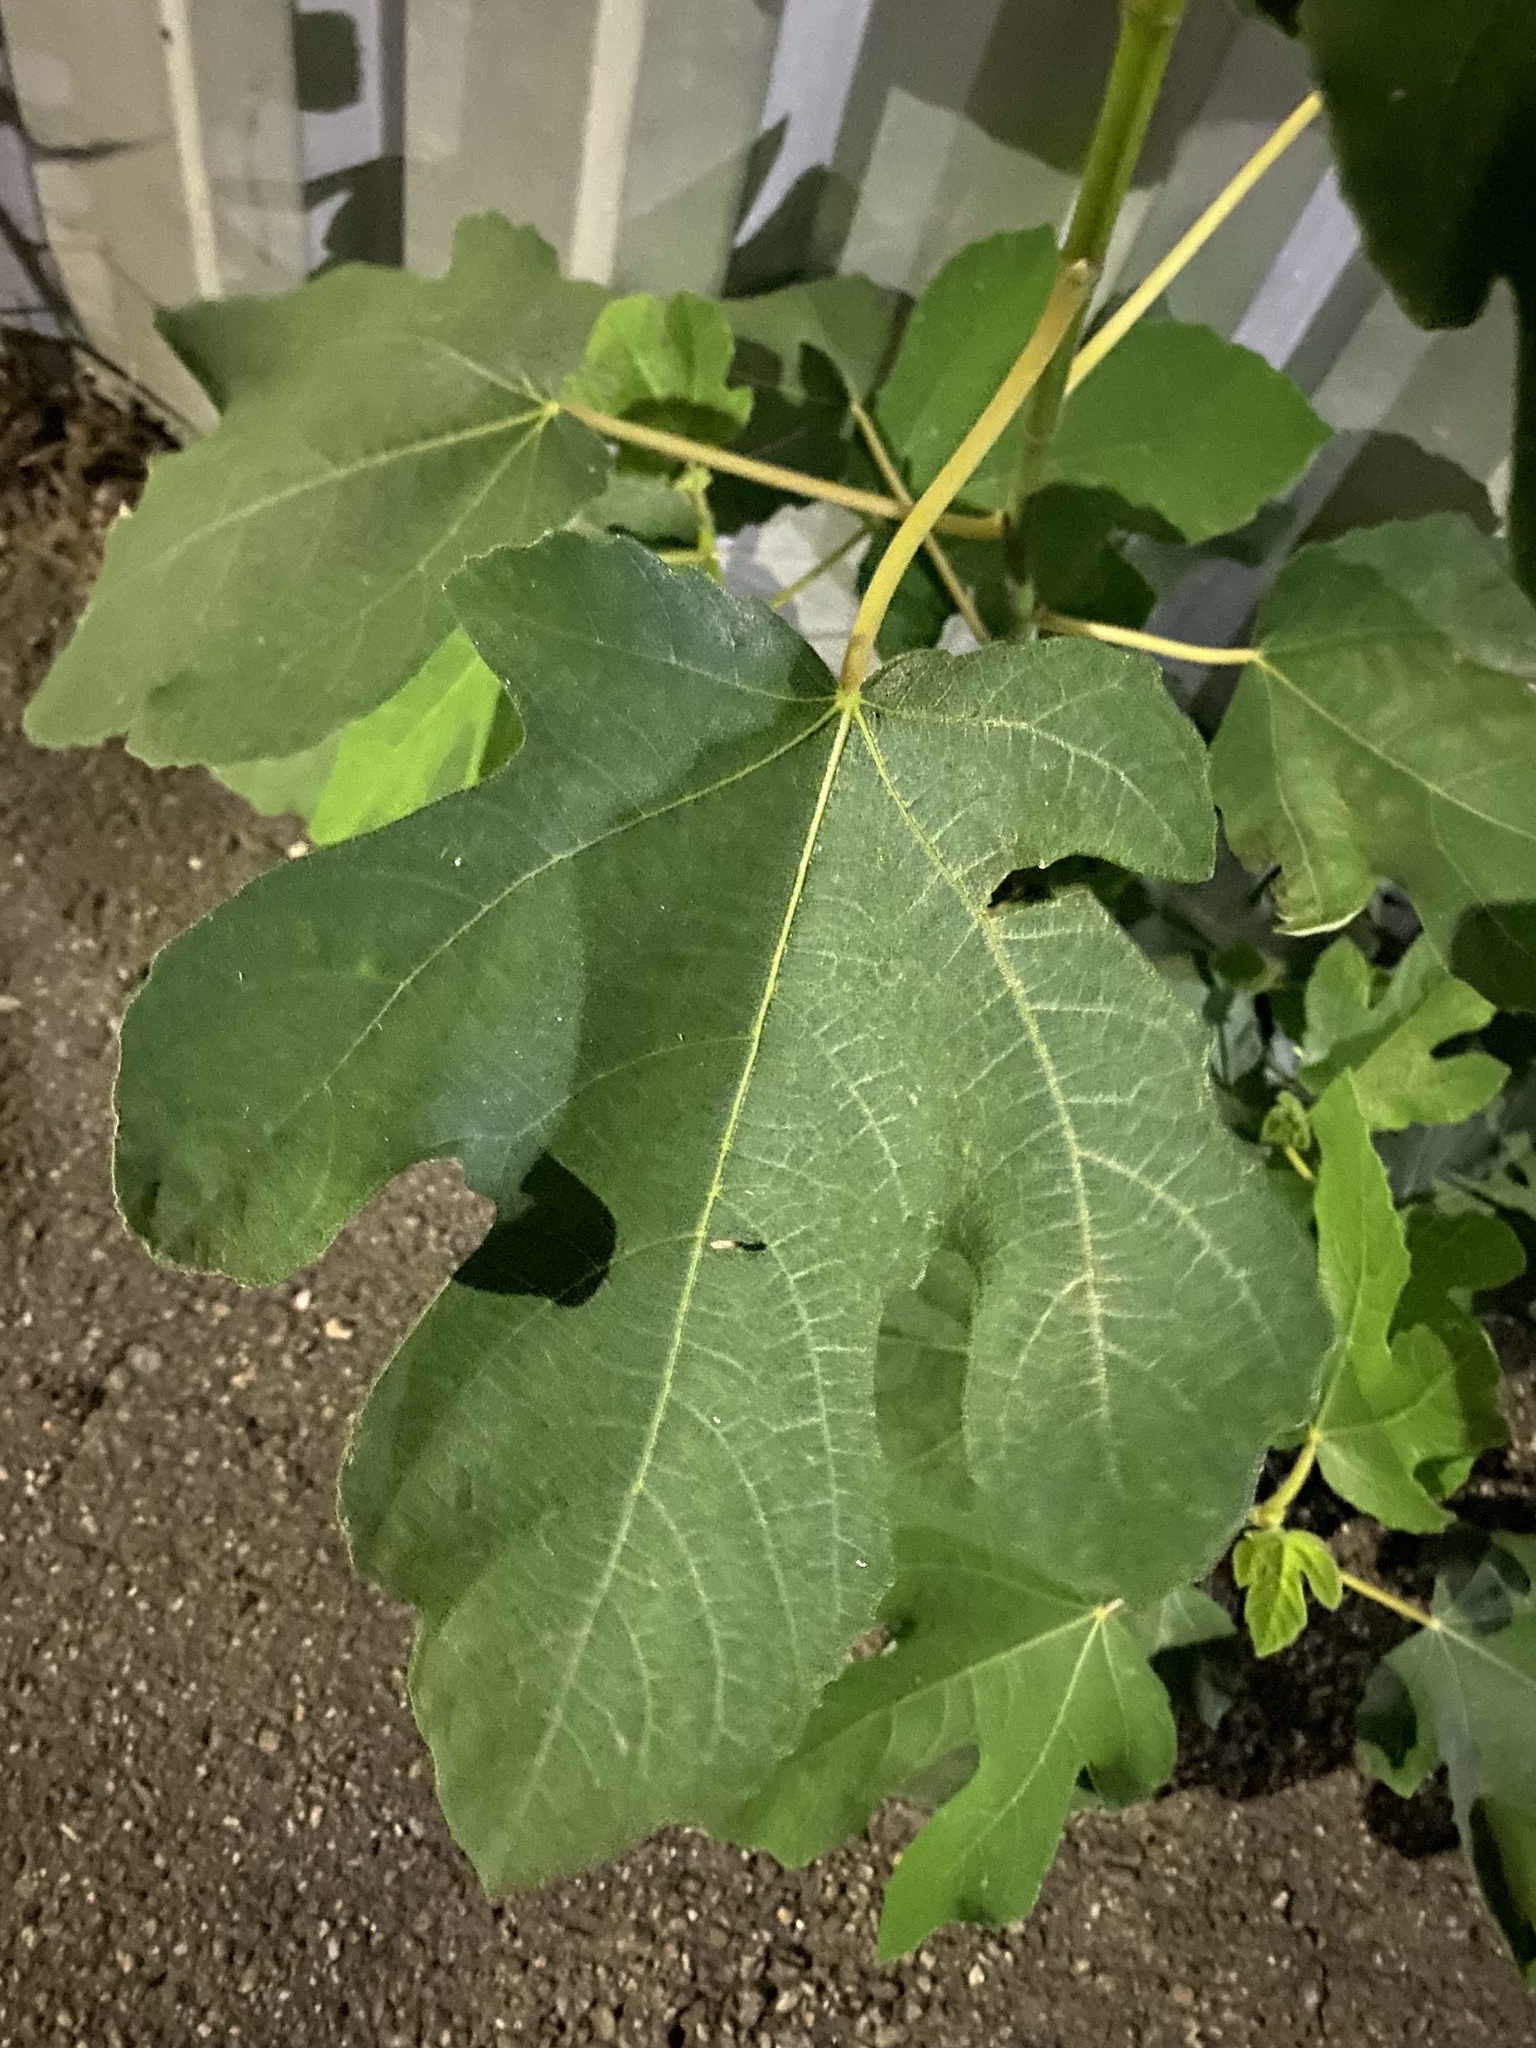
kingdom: Plantae
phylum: Tracheophyta
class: Magnoliopsida
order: Rosales
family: Moraceae
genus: Ficus
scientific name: Ficus carica
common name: Fig
